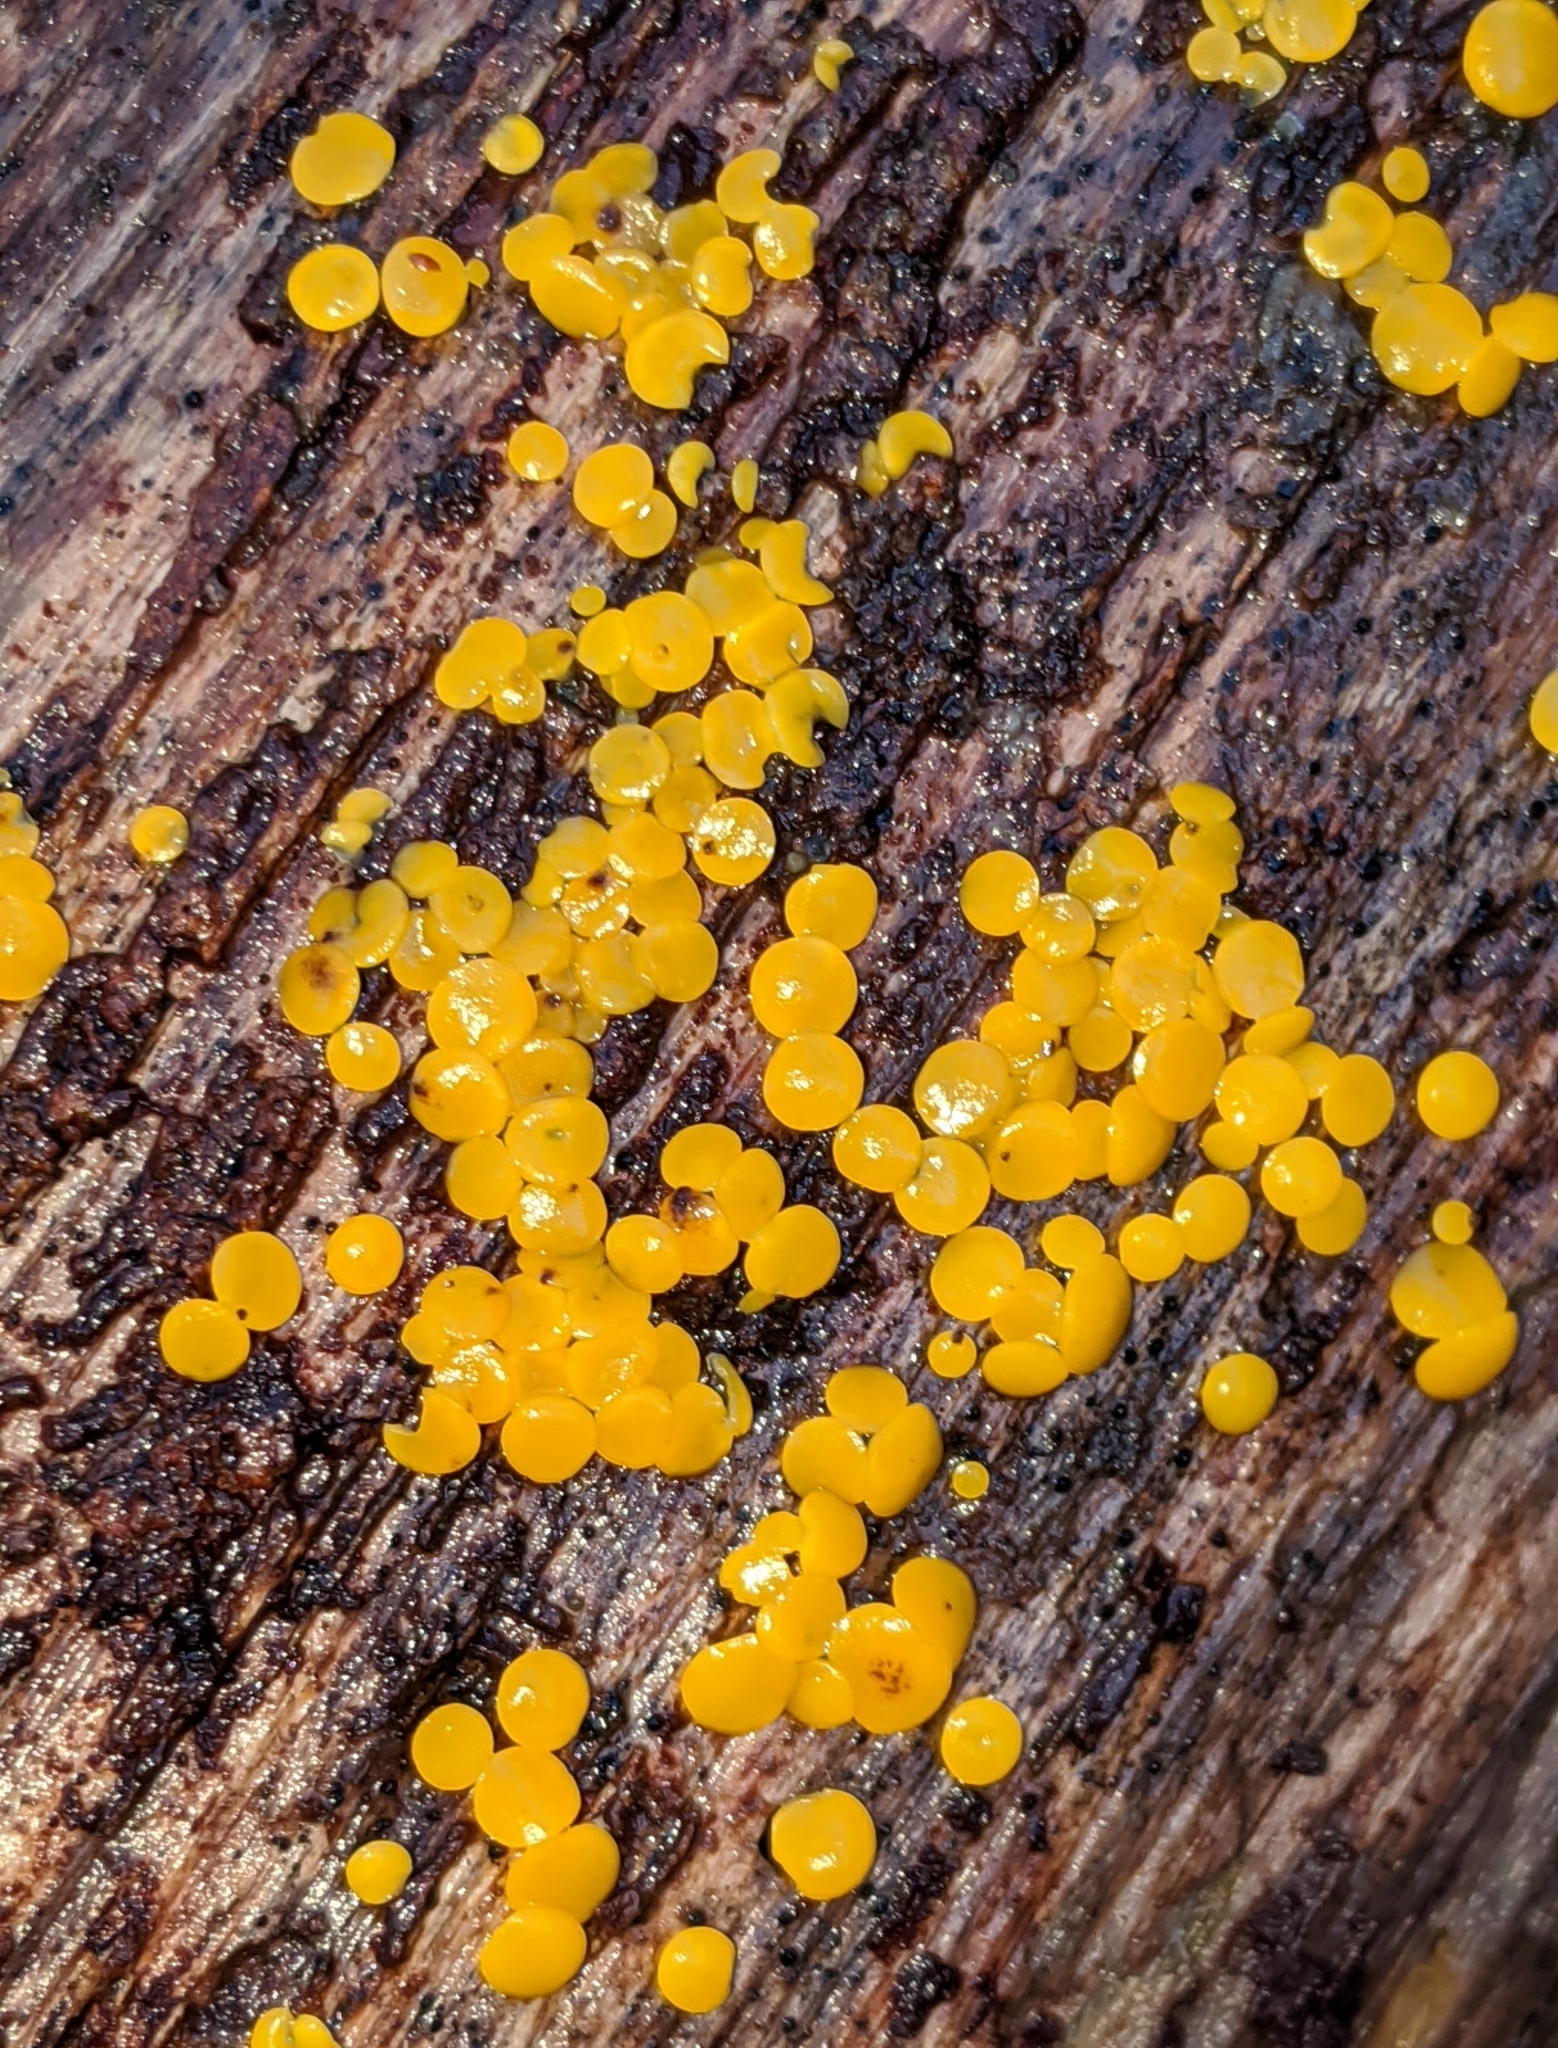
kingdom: Fungi
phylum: Ascomycota
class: Leotiomycetes
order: Helotiales
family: Pezizellaceae
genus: Calycina
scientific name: Calycina citrina
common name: Yellow fairy cups
